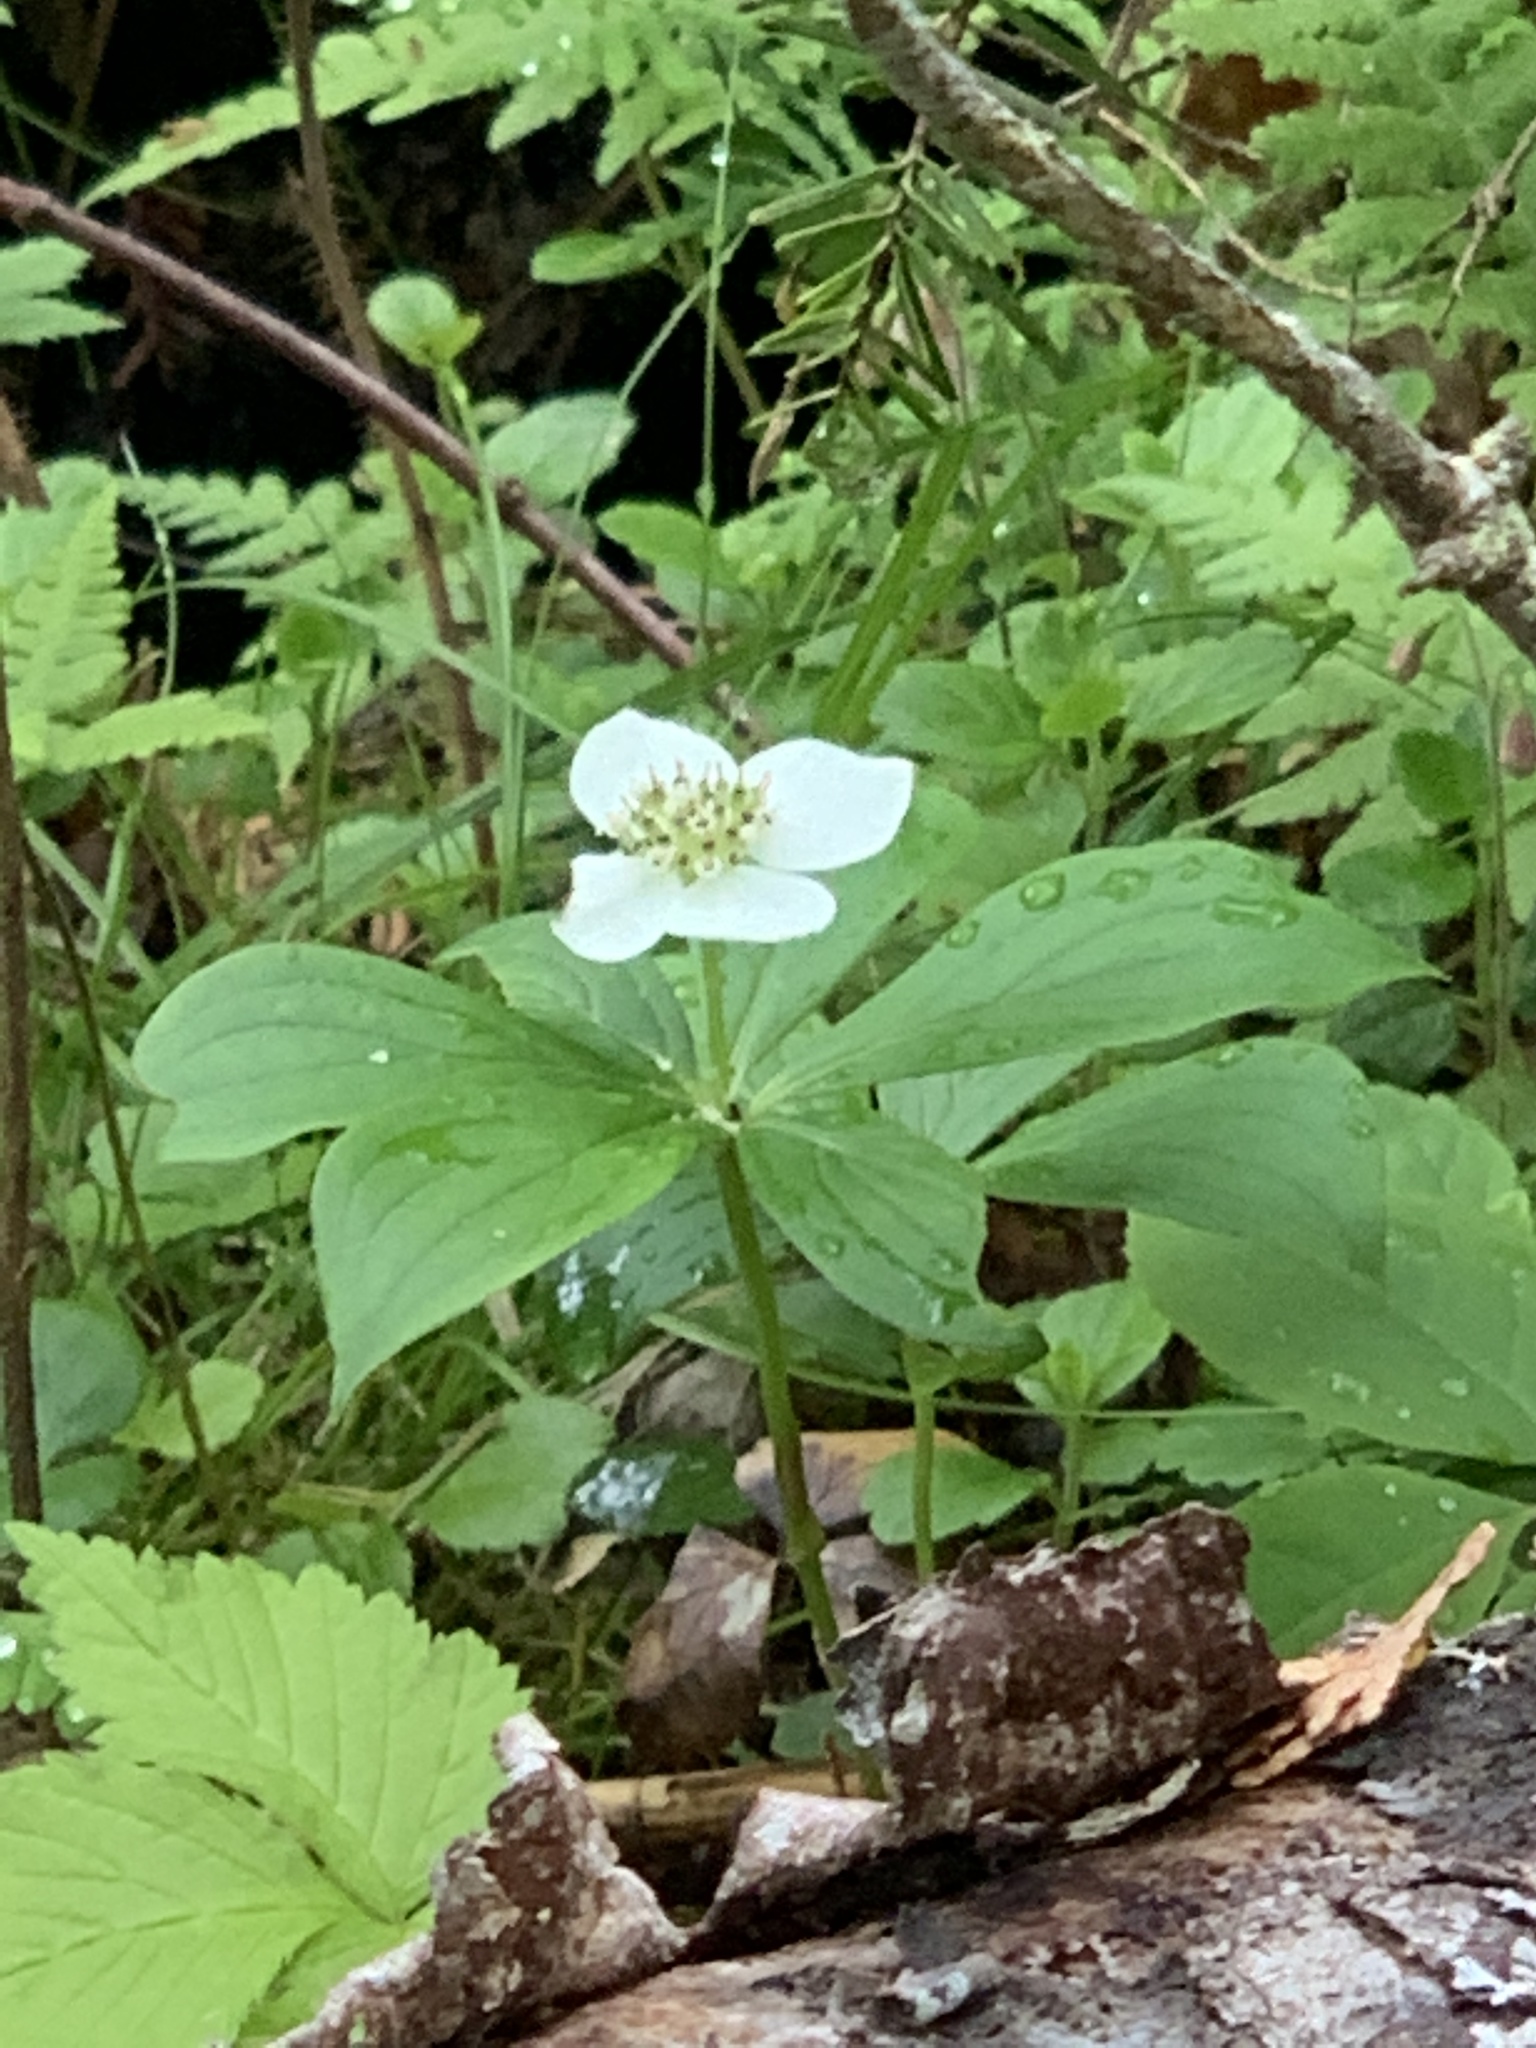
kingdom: Plantae
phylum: Tracheophyta
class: Magnoliopsida
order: Cornales
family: Cornaceae
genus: Cornus
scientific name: Cornus canadensis
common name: Creeping dogwood
